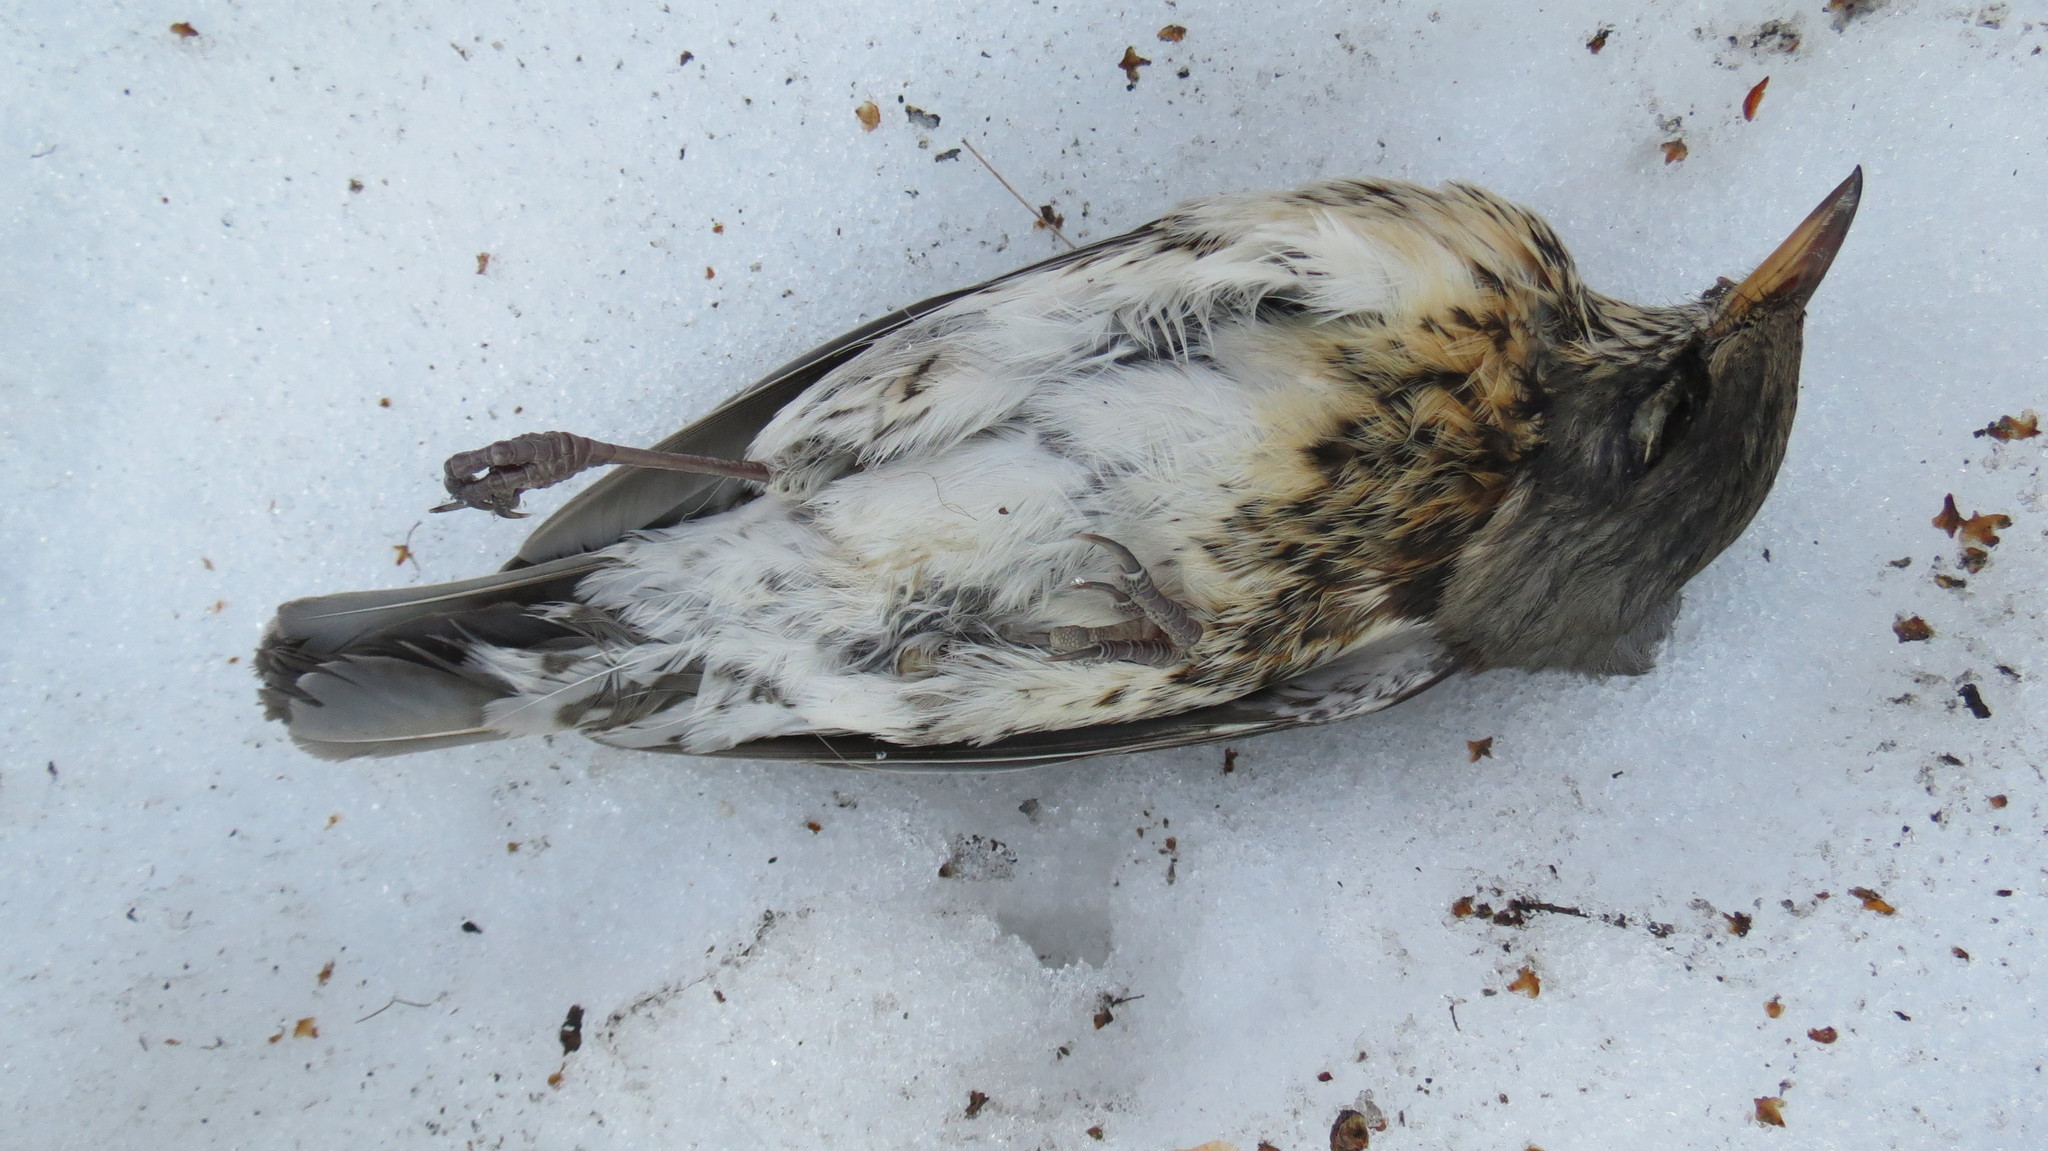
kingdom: Animalia
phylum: Chordata
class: Aves
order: Passeriformes
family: Turdidae
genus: Turdus
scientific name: Turdus pilaris
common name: Fieldfare
